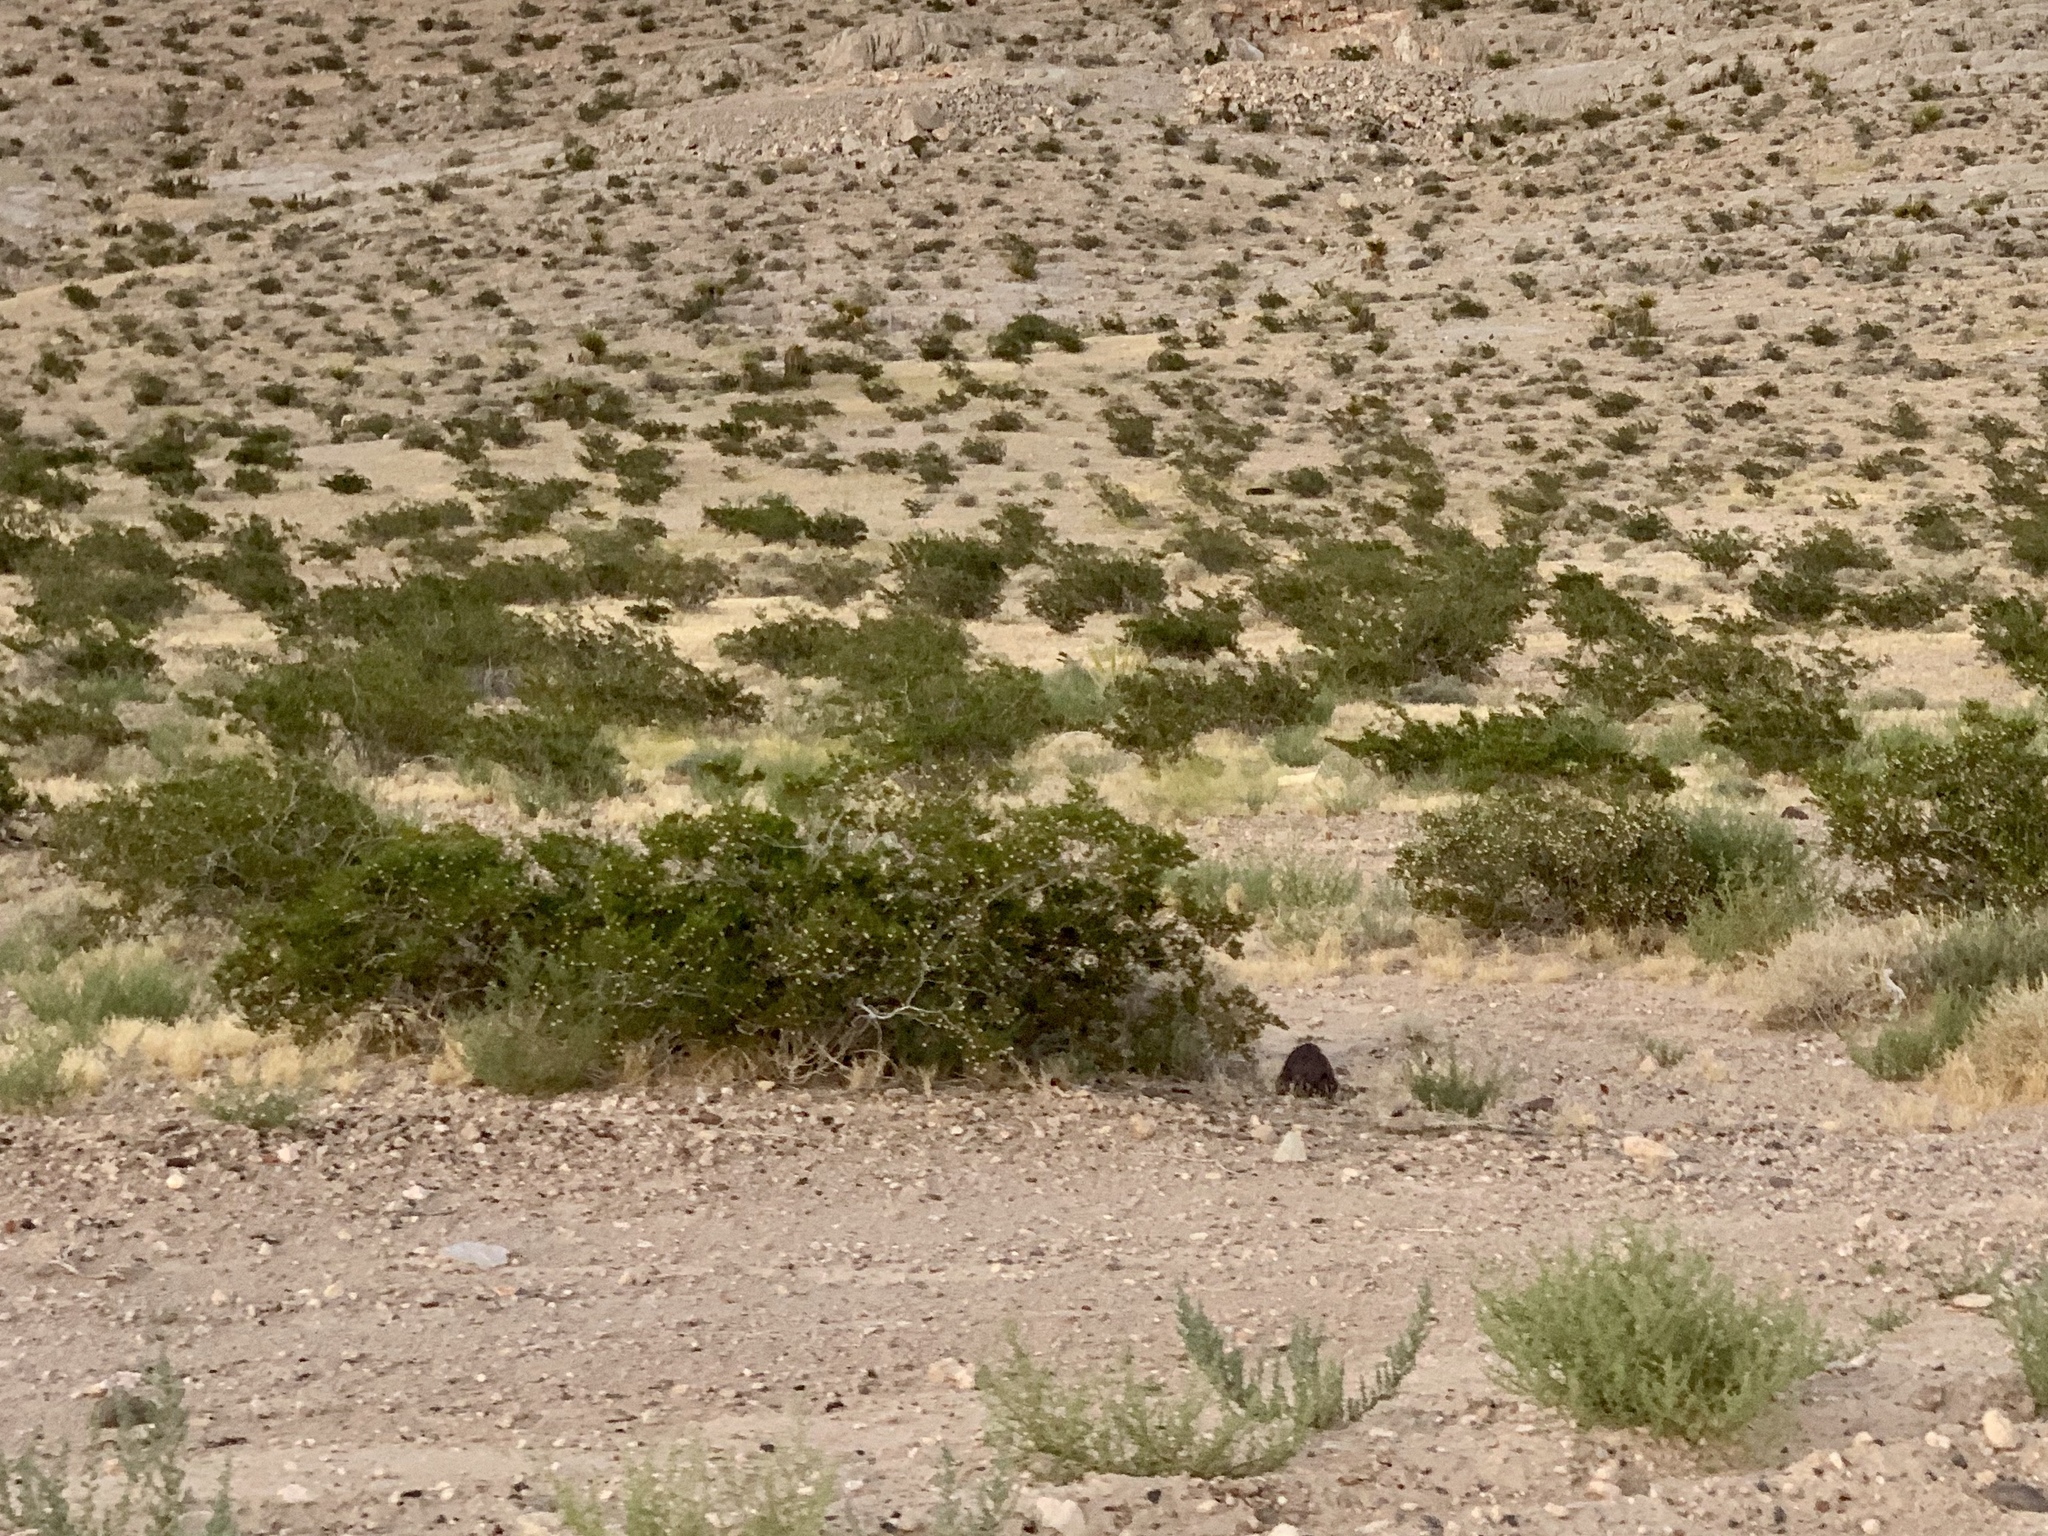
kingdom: Plantae
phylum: Tracheophyta
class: Magnoliopsida
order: Zygophyllales
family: Zygophyllaceae
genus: Larrea
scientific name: Larrea tridentata
